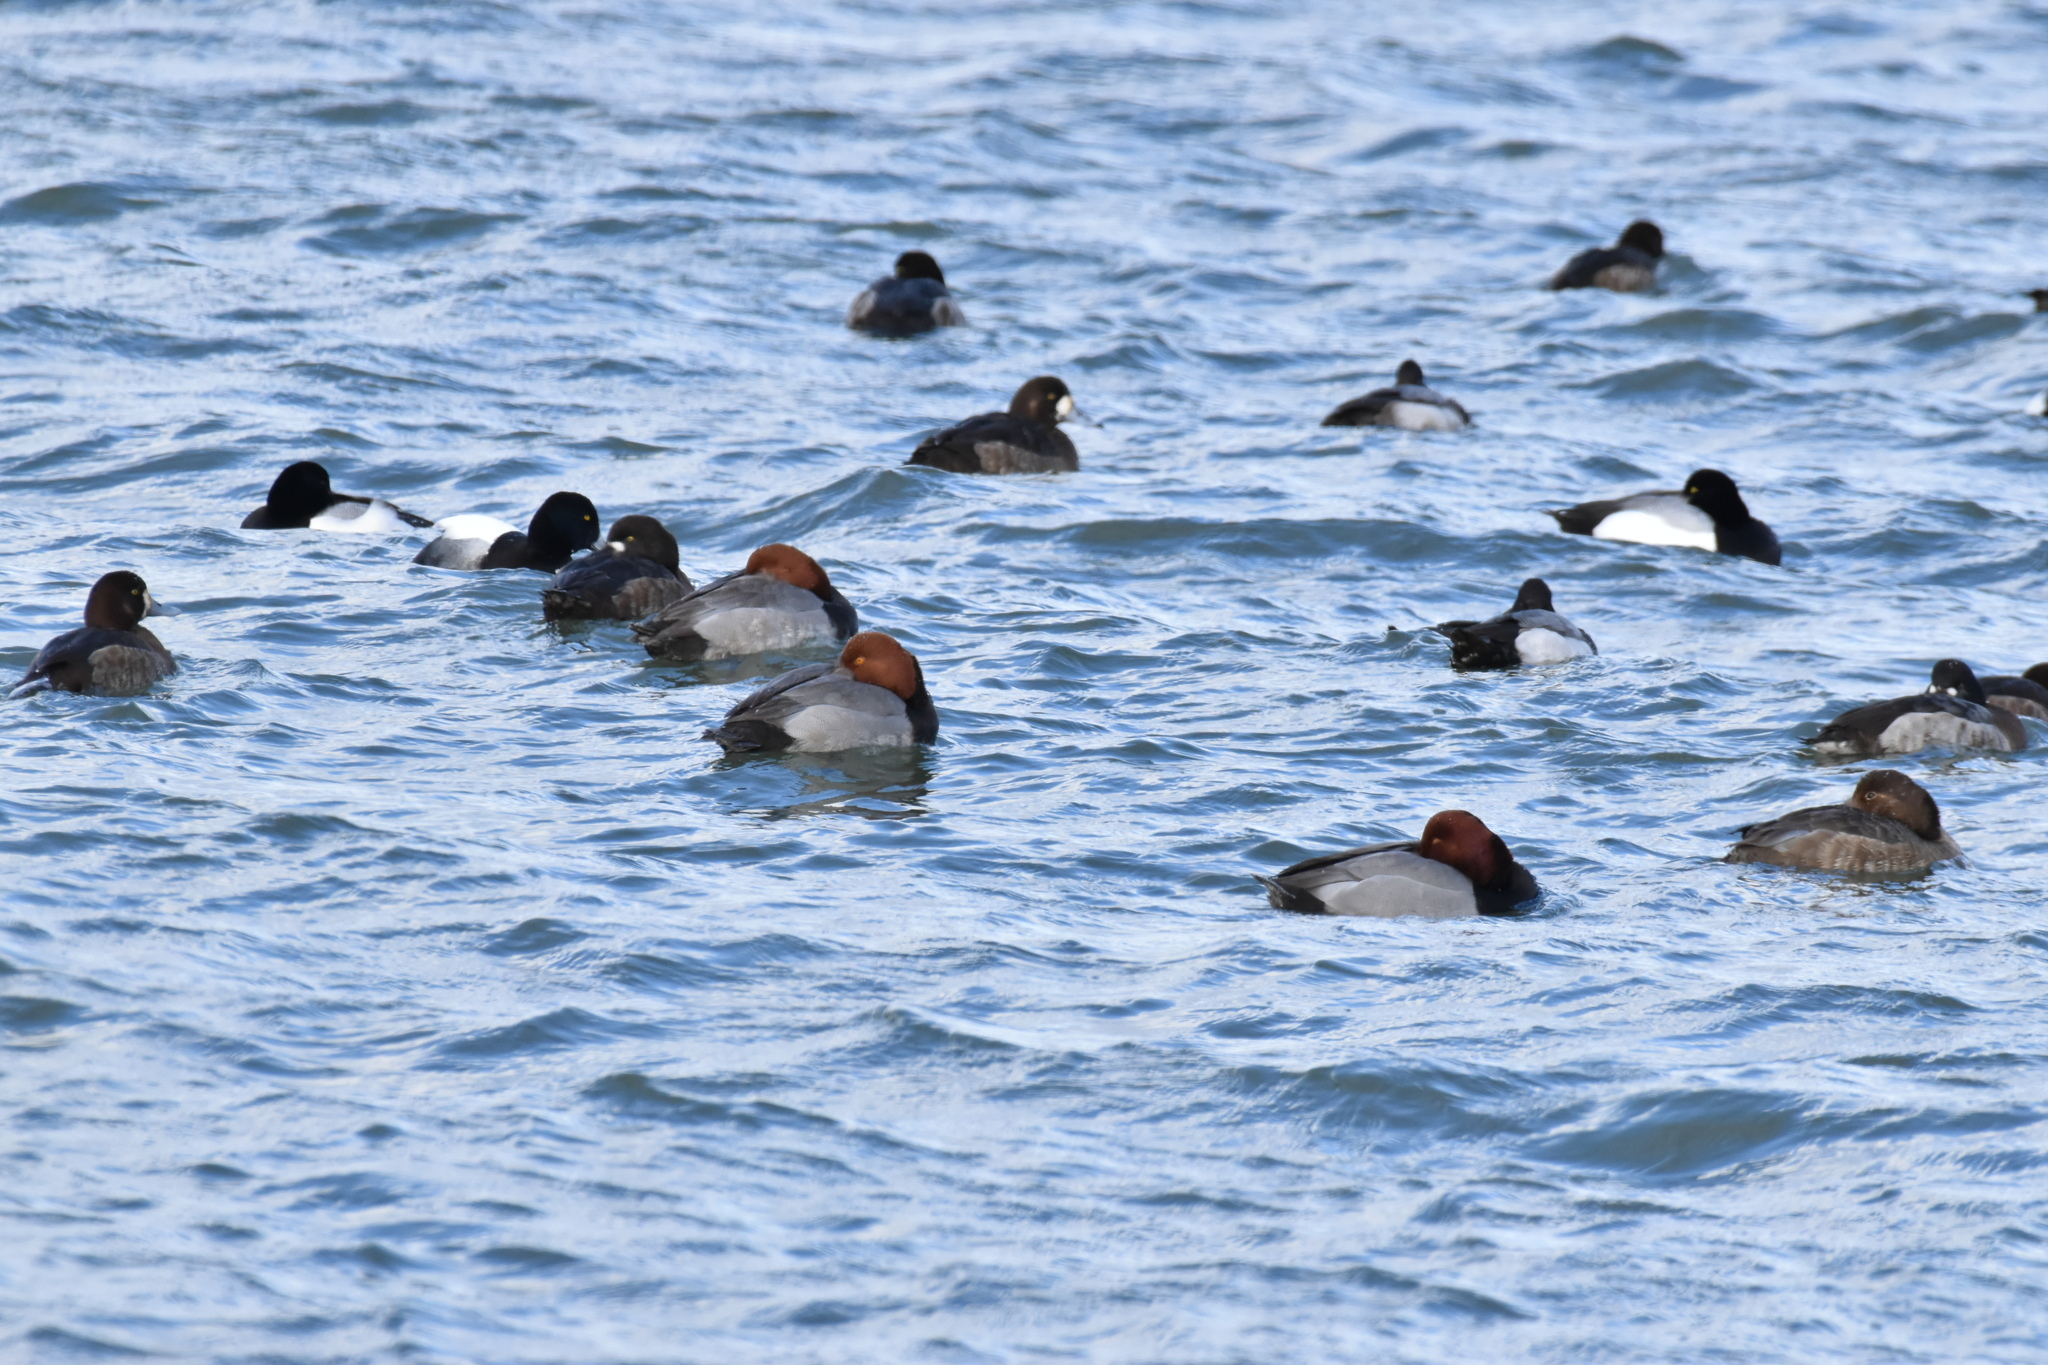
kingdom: Animalia
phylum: Chordata
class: Aves
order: Anseriformes
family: Anatidae
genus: Aythya
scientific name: Aythya americana
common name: Redhead
